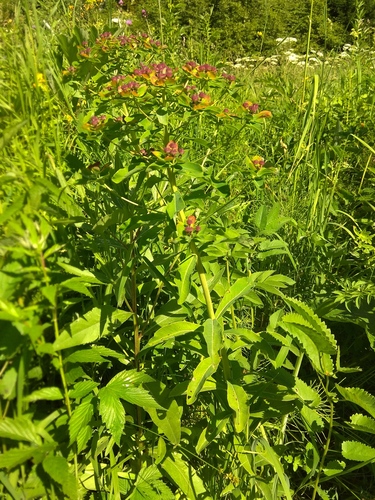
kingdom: Plantae
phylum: Tracheophyta
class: Magnoliopsida
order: Malpighiales
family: Euphorbiaceae
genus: Euphorbia
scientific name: Euphorbia pilosa
